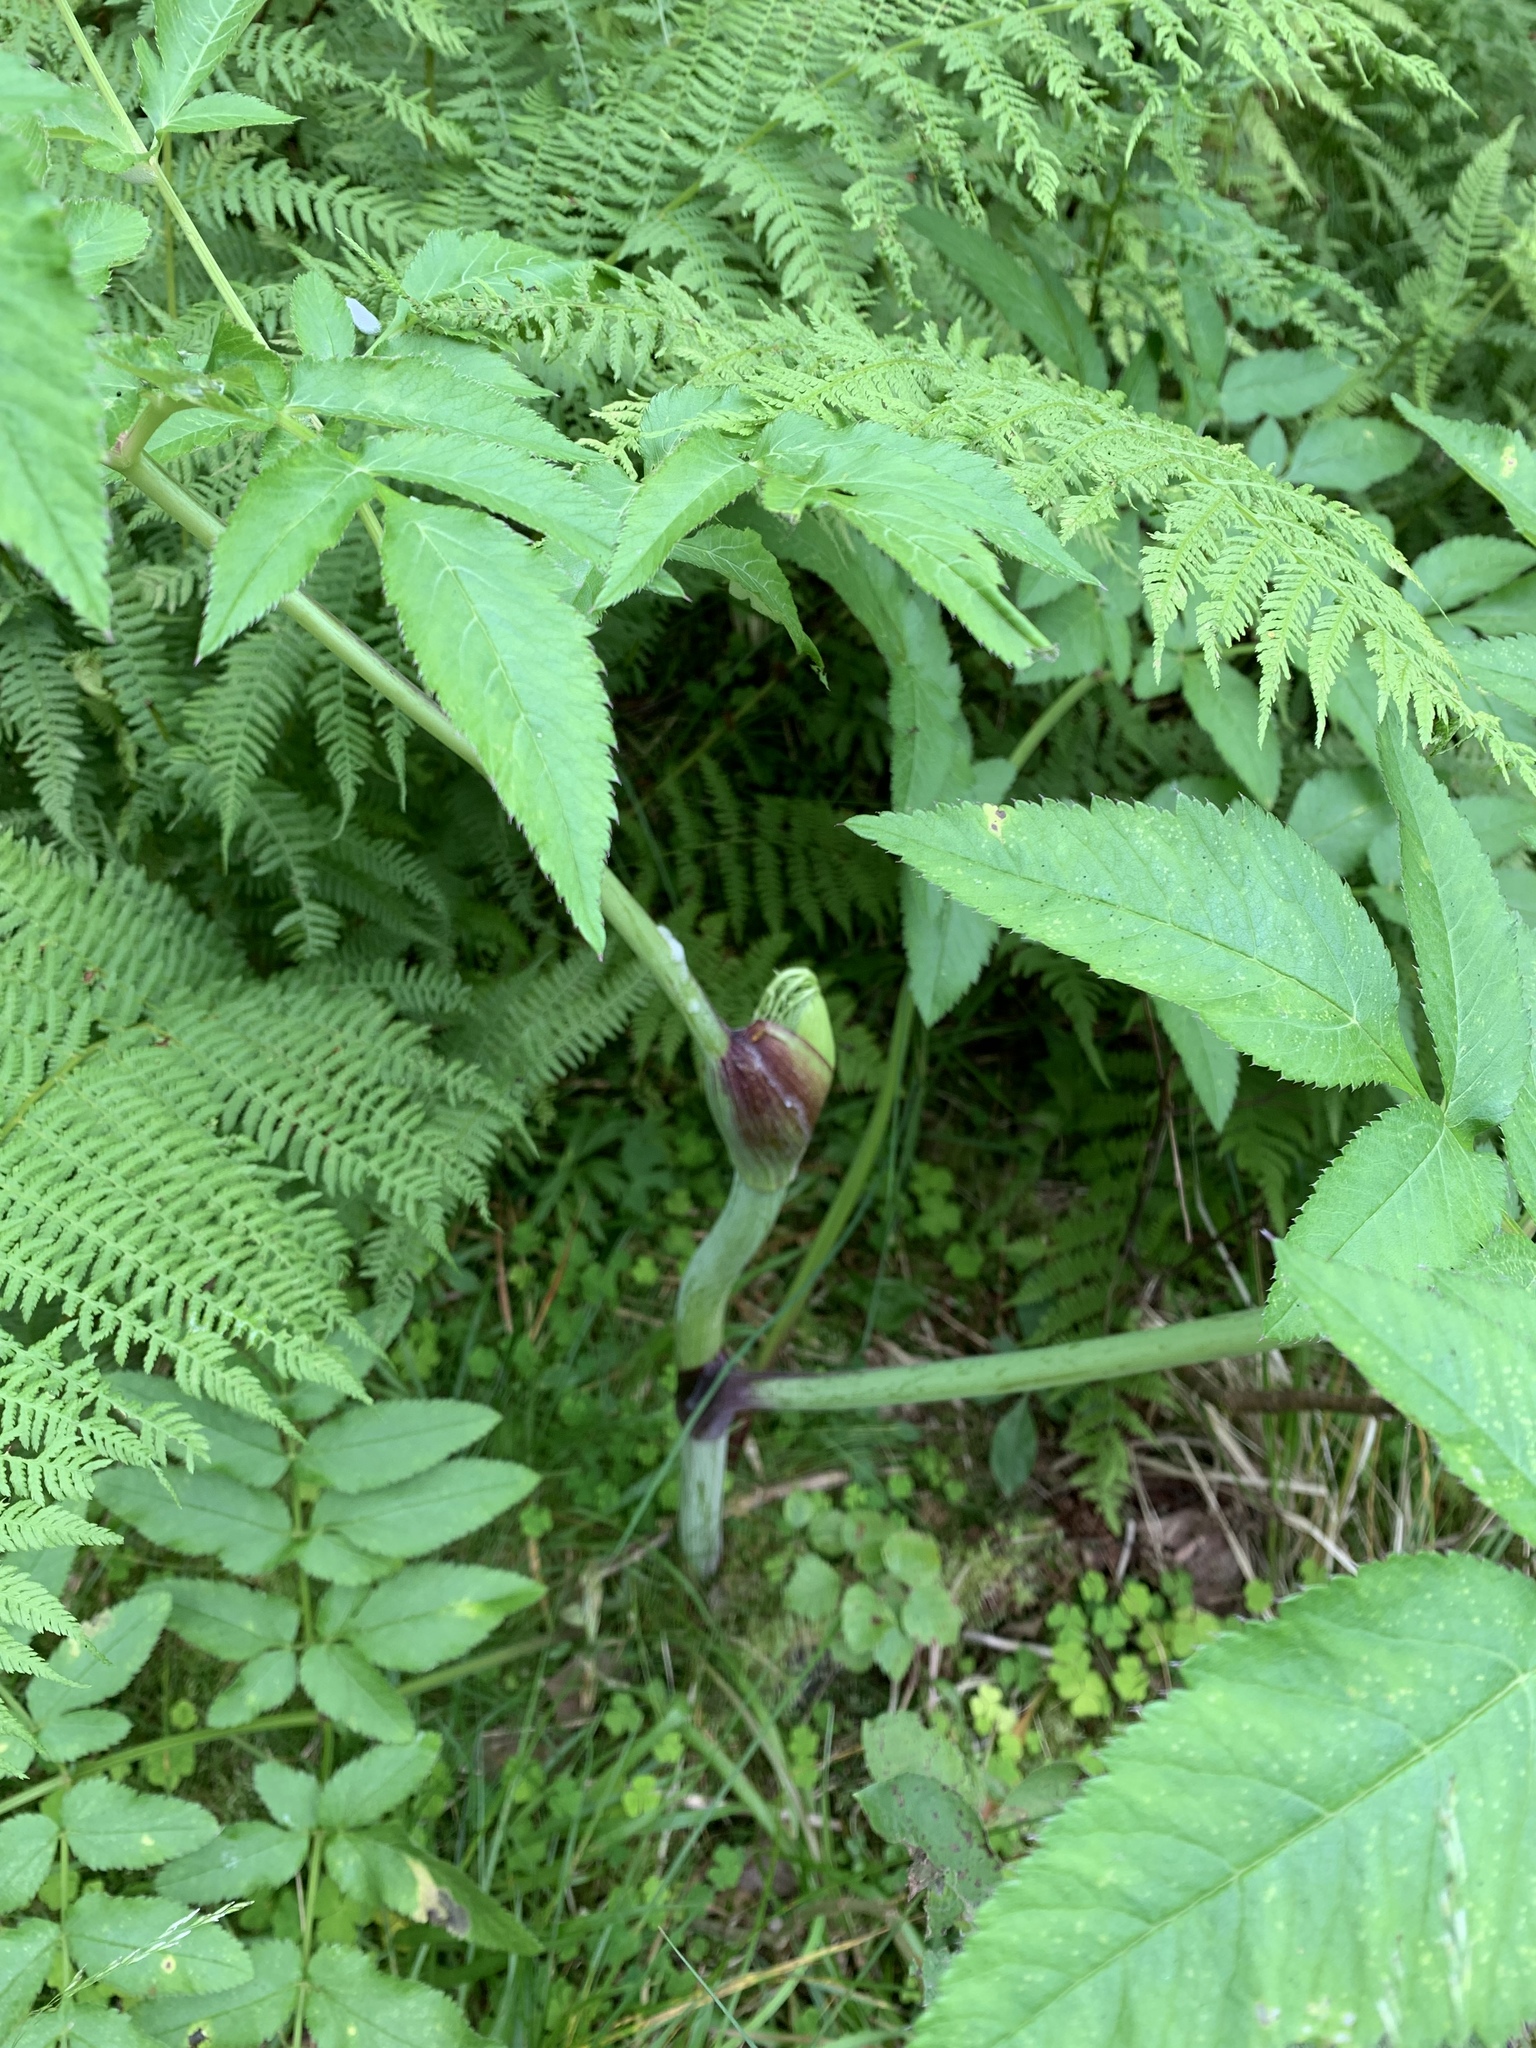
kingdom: Plantae
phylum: Tracheophyta
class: Magnoliopsida
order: Apiales
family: Apiaceae
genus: Angelica
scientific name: Angelica sylvestris
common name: Wild angelica
